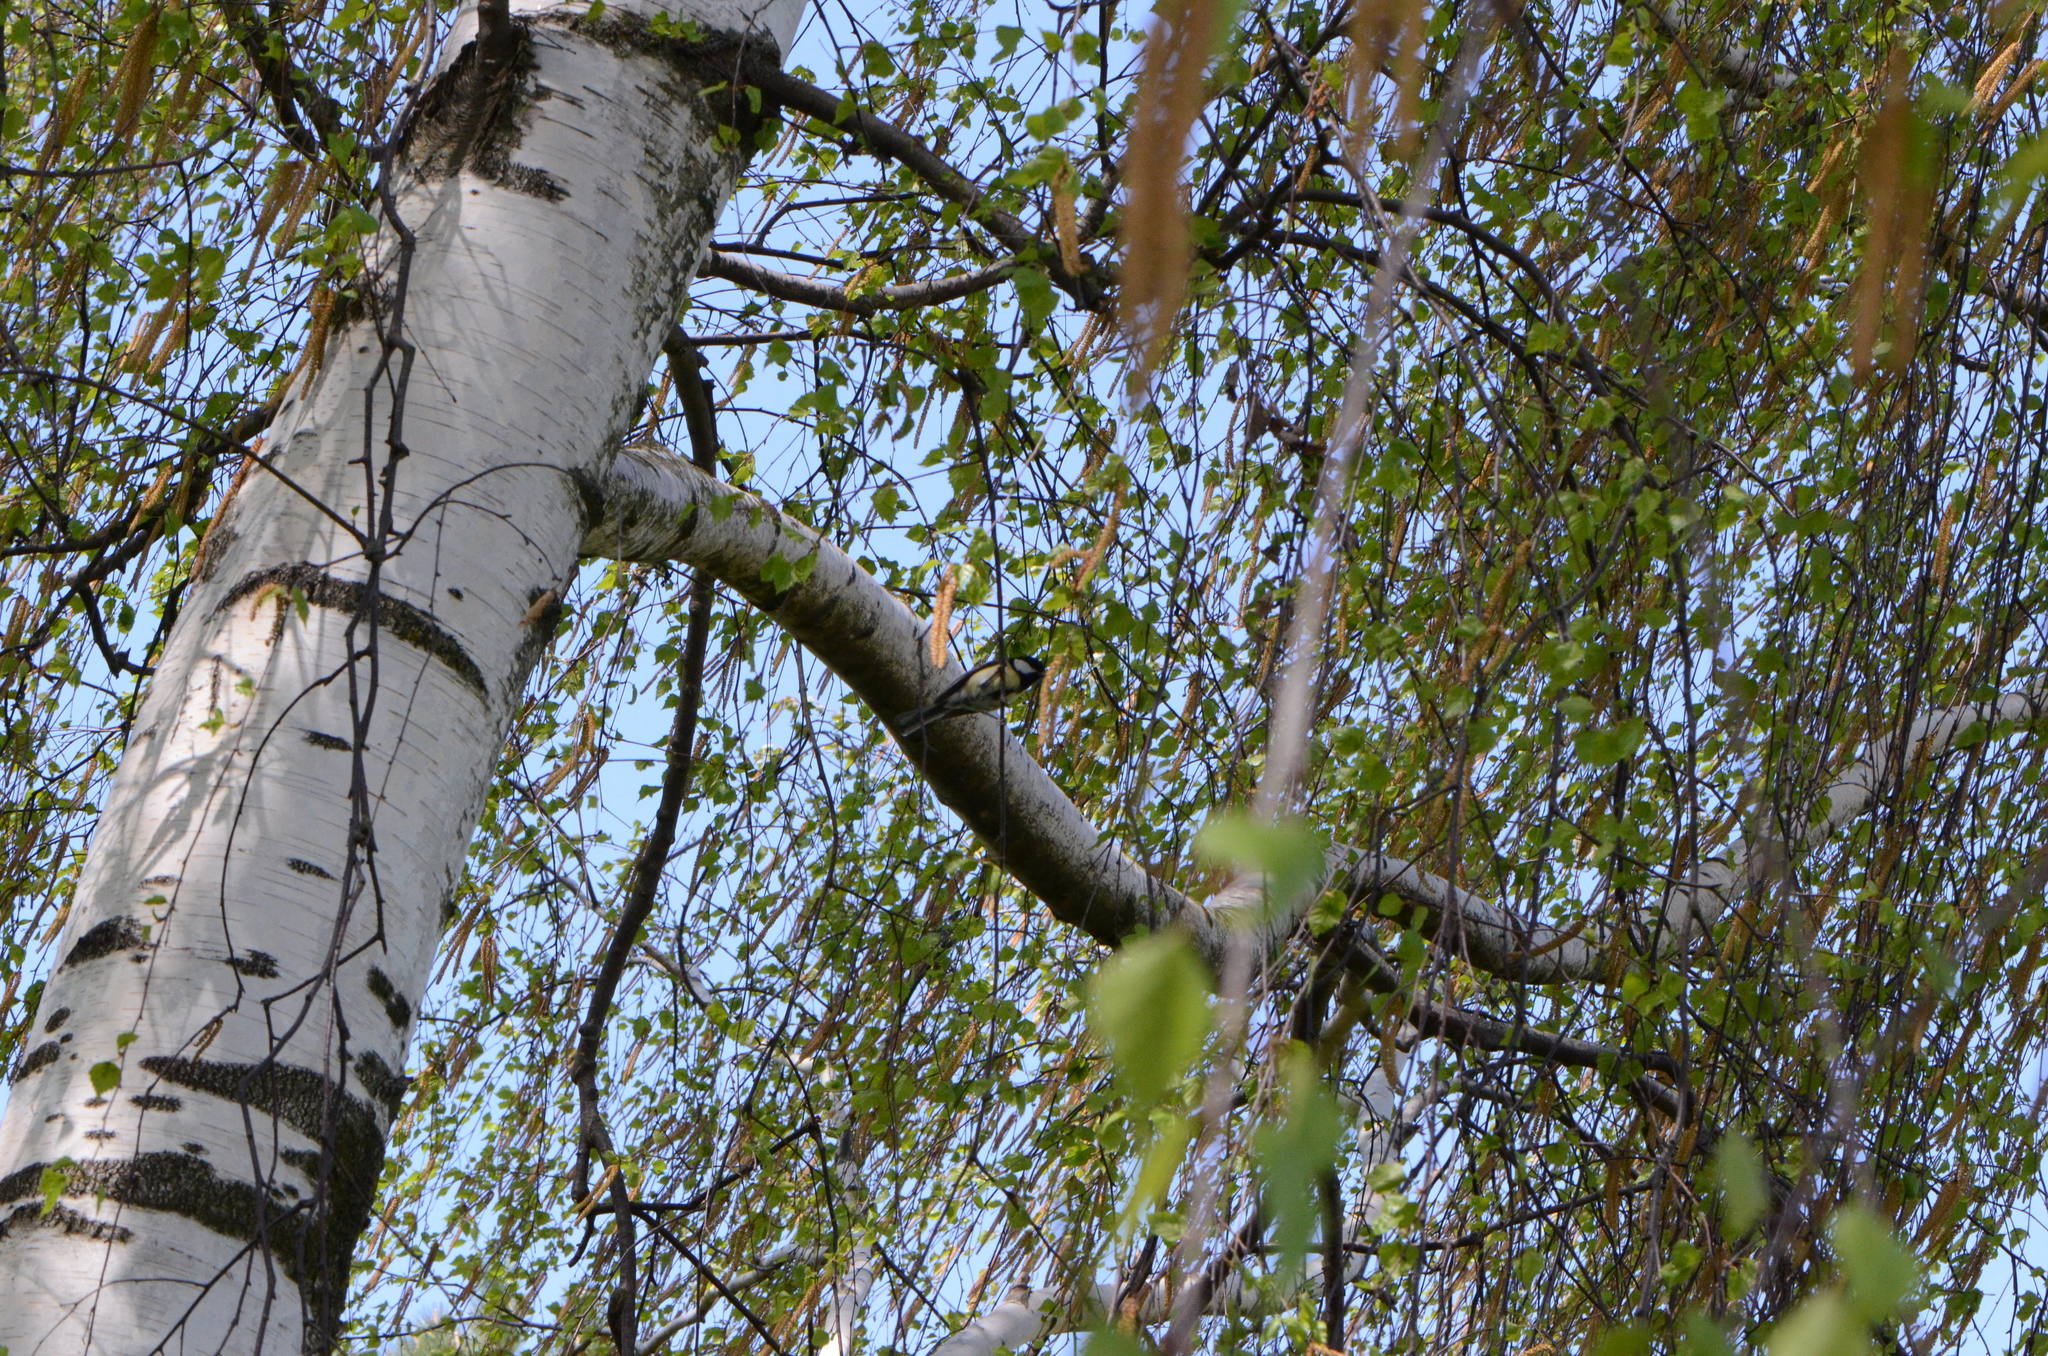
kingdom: Plantae
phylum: Tracheophyta
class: Magnoliopsida
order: Fagales
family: Betulaceae
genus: Betula
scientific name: Betula pendula
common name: Silver birch
